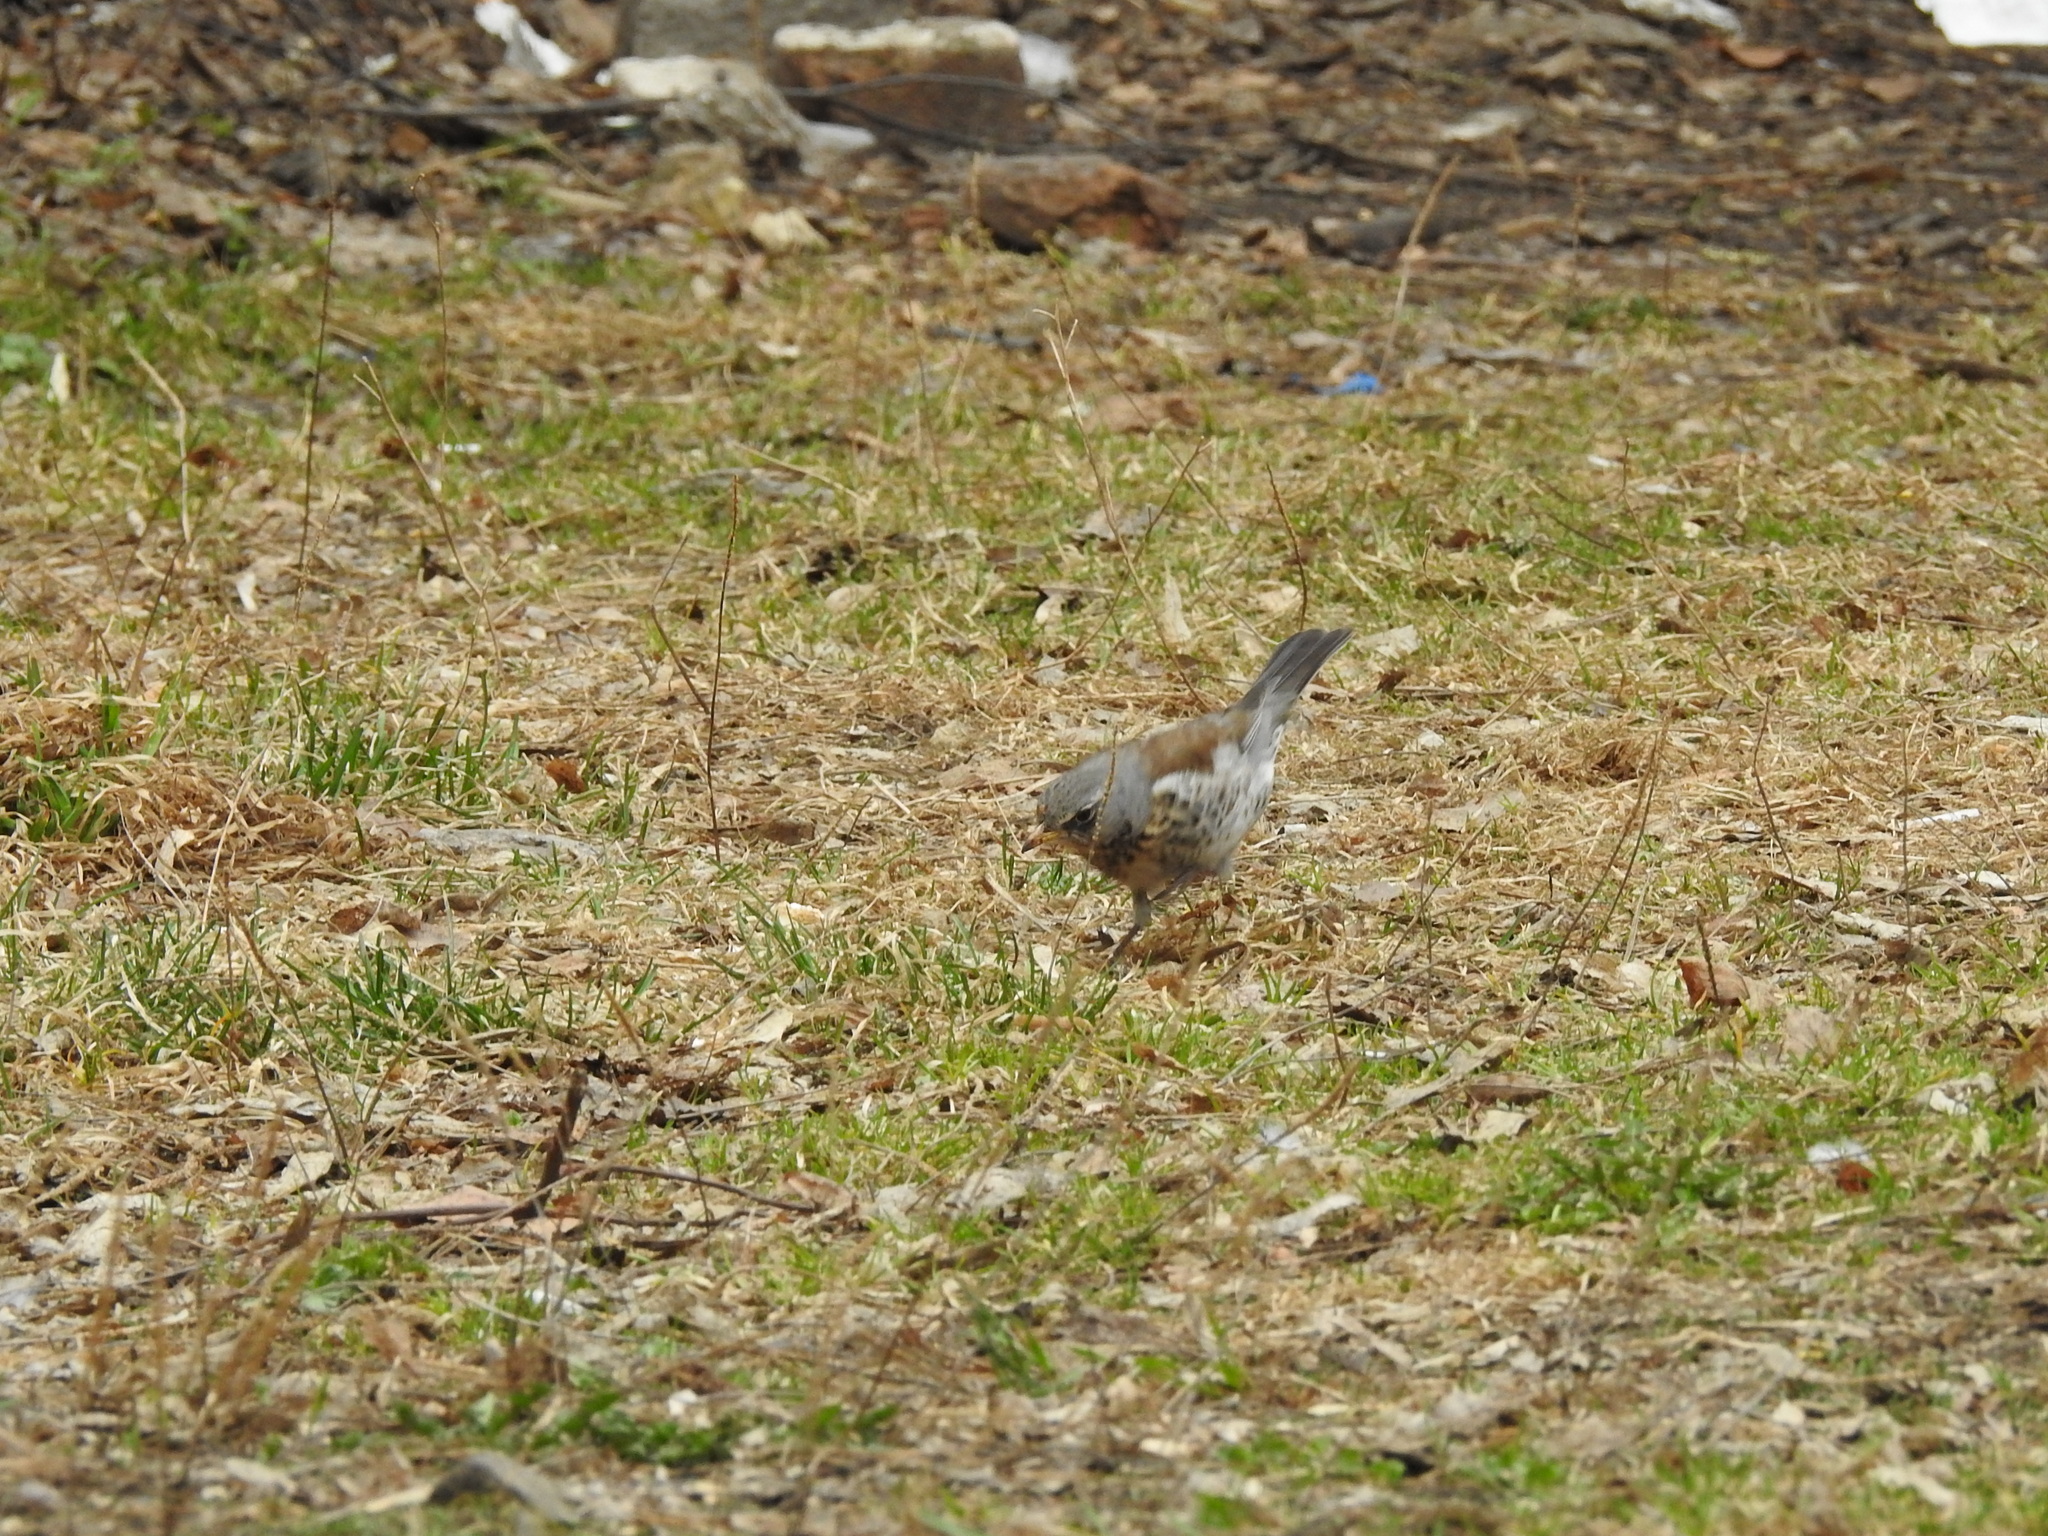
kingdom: Animalia
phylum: Chordata
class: Aves
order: Passeriformes
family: Turdidae
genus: Turdus
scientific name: Turdus pilaris
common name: Fieldfare
